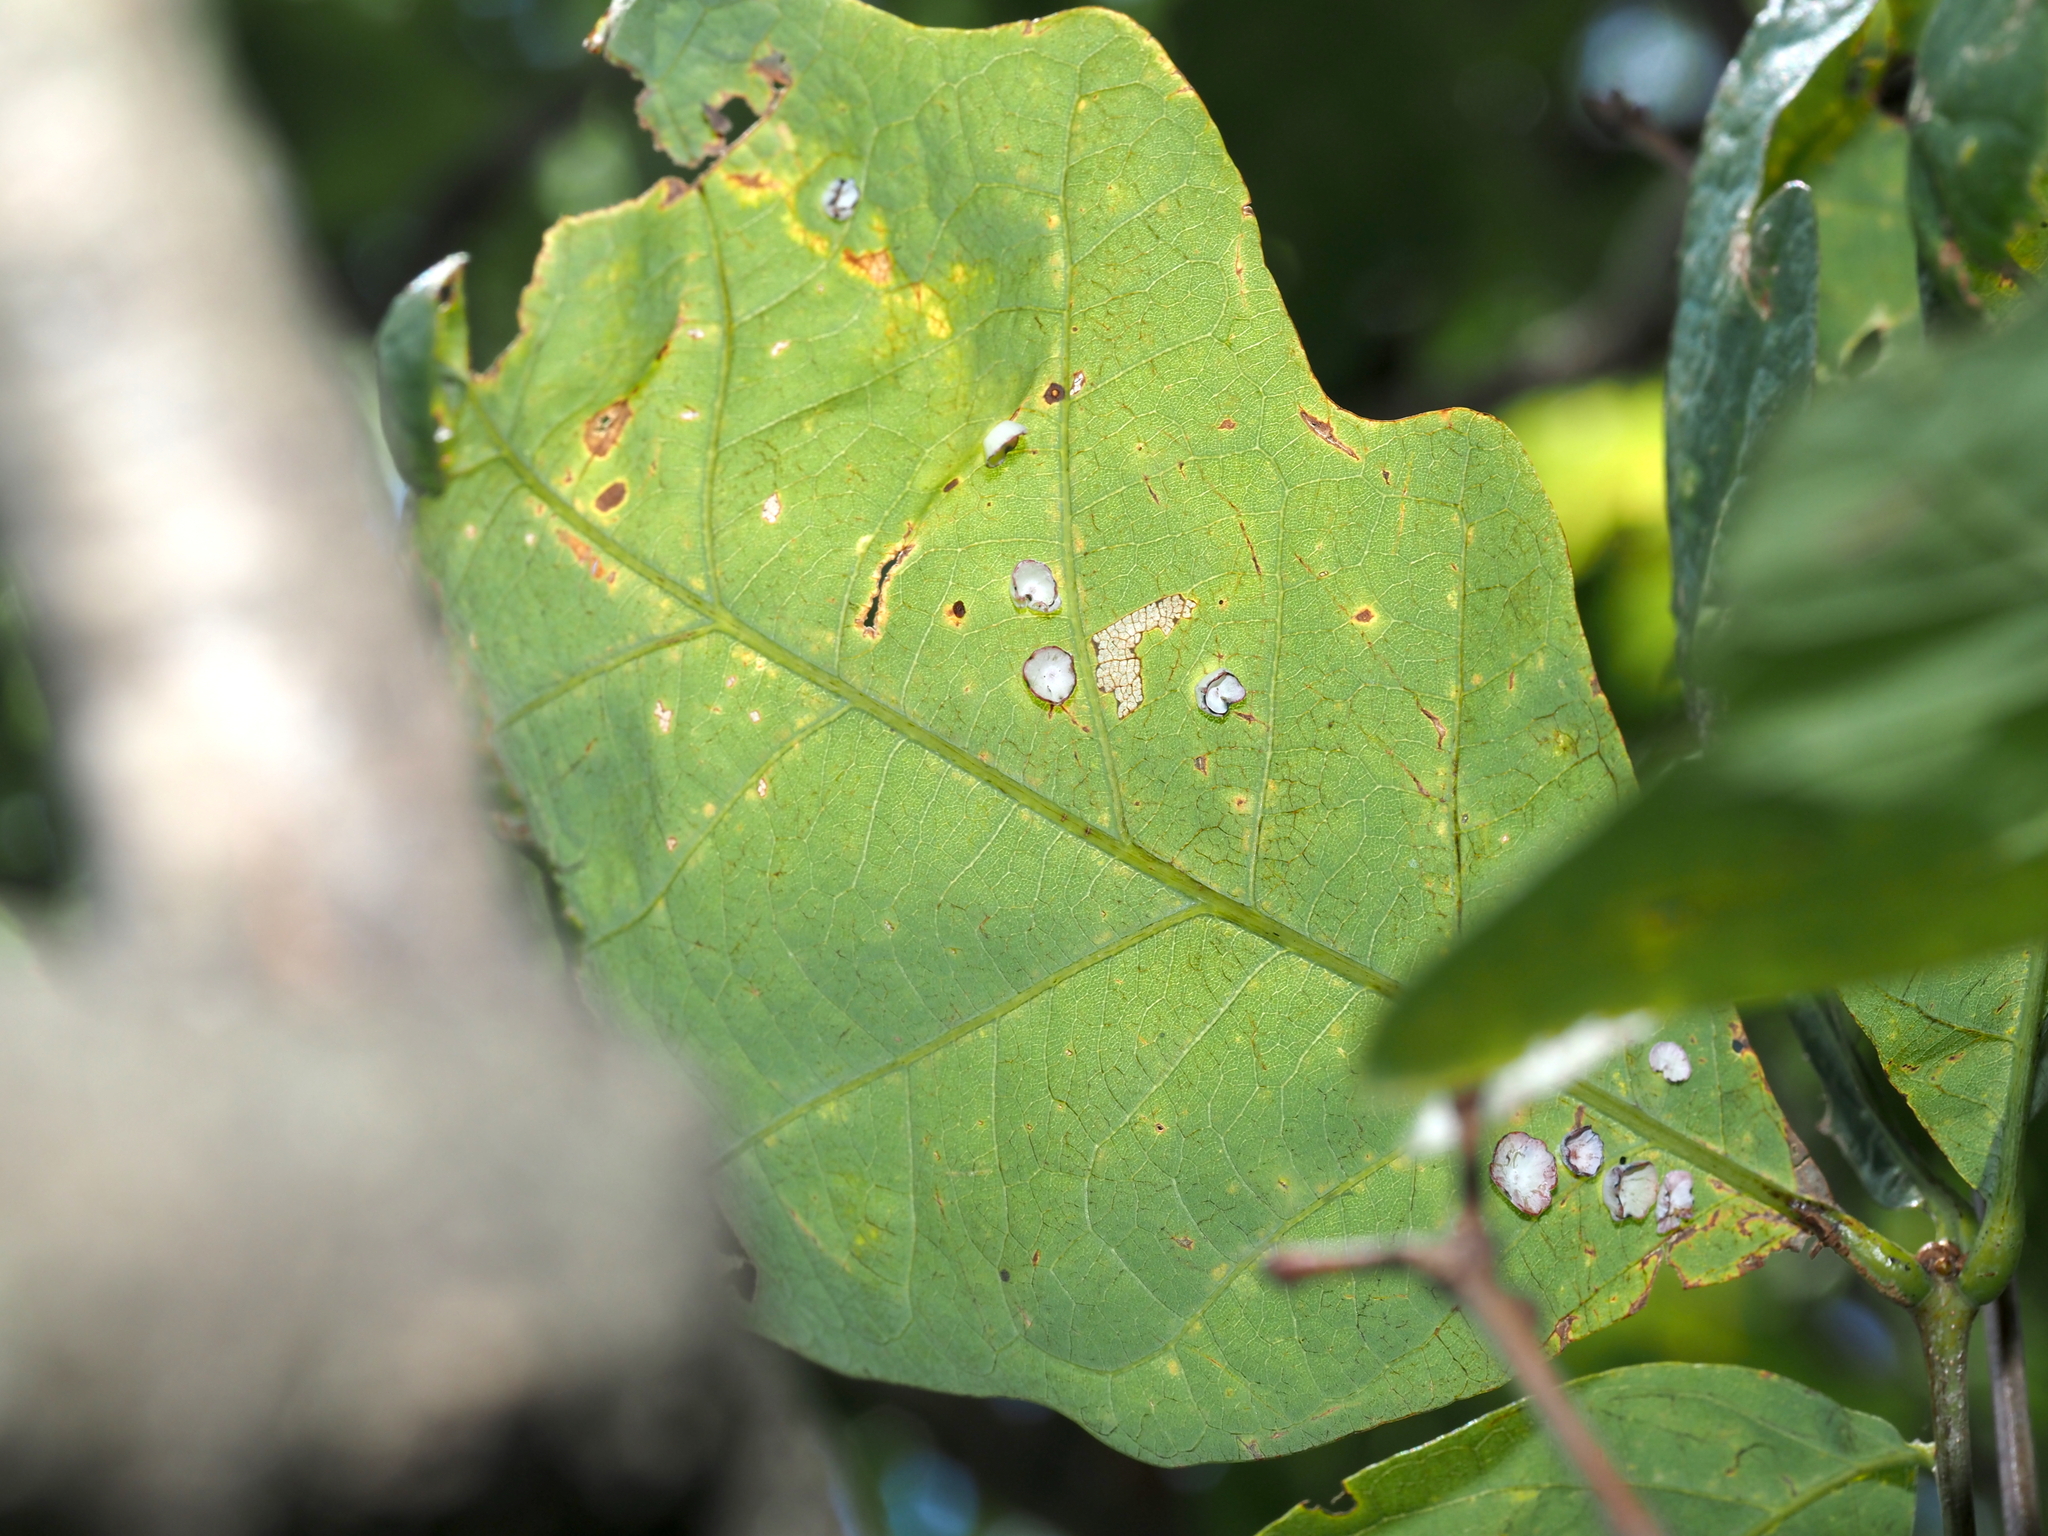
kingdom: Animalia
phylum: Arthropoda
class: Insecta
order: Hymenoptera
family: Cynipidae
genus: Phylloteras
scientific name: Phylloteras poculum
